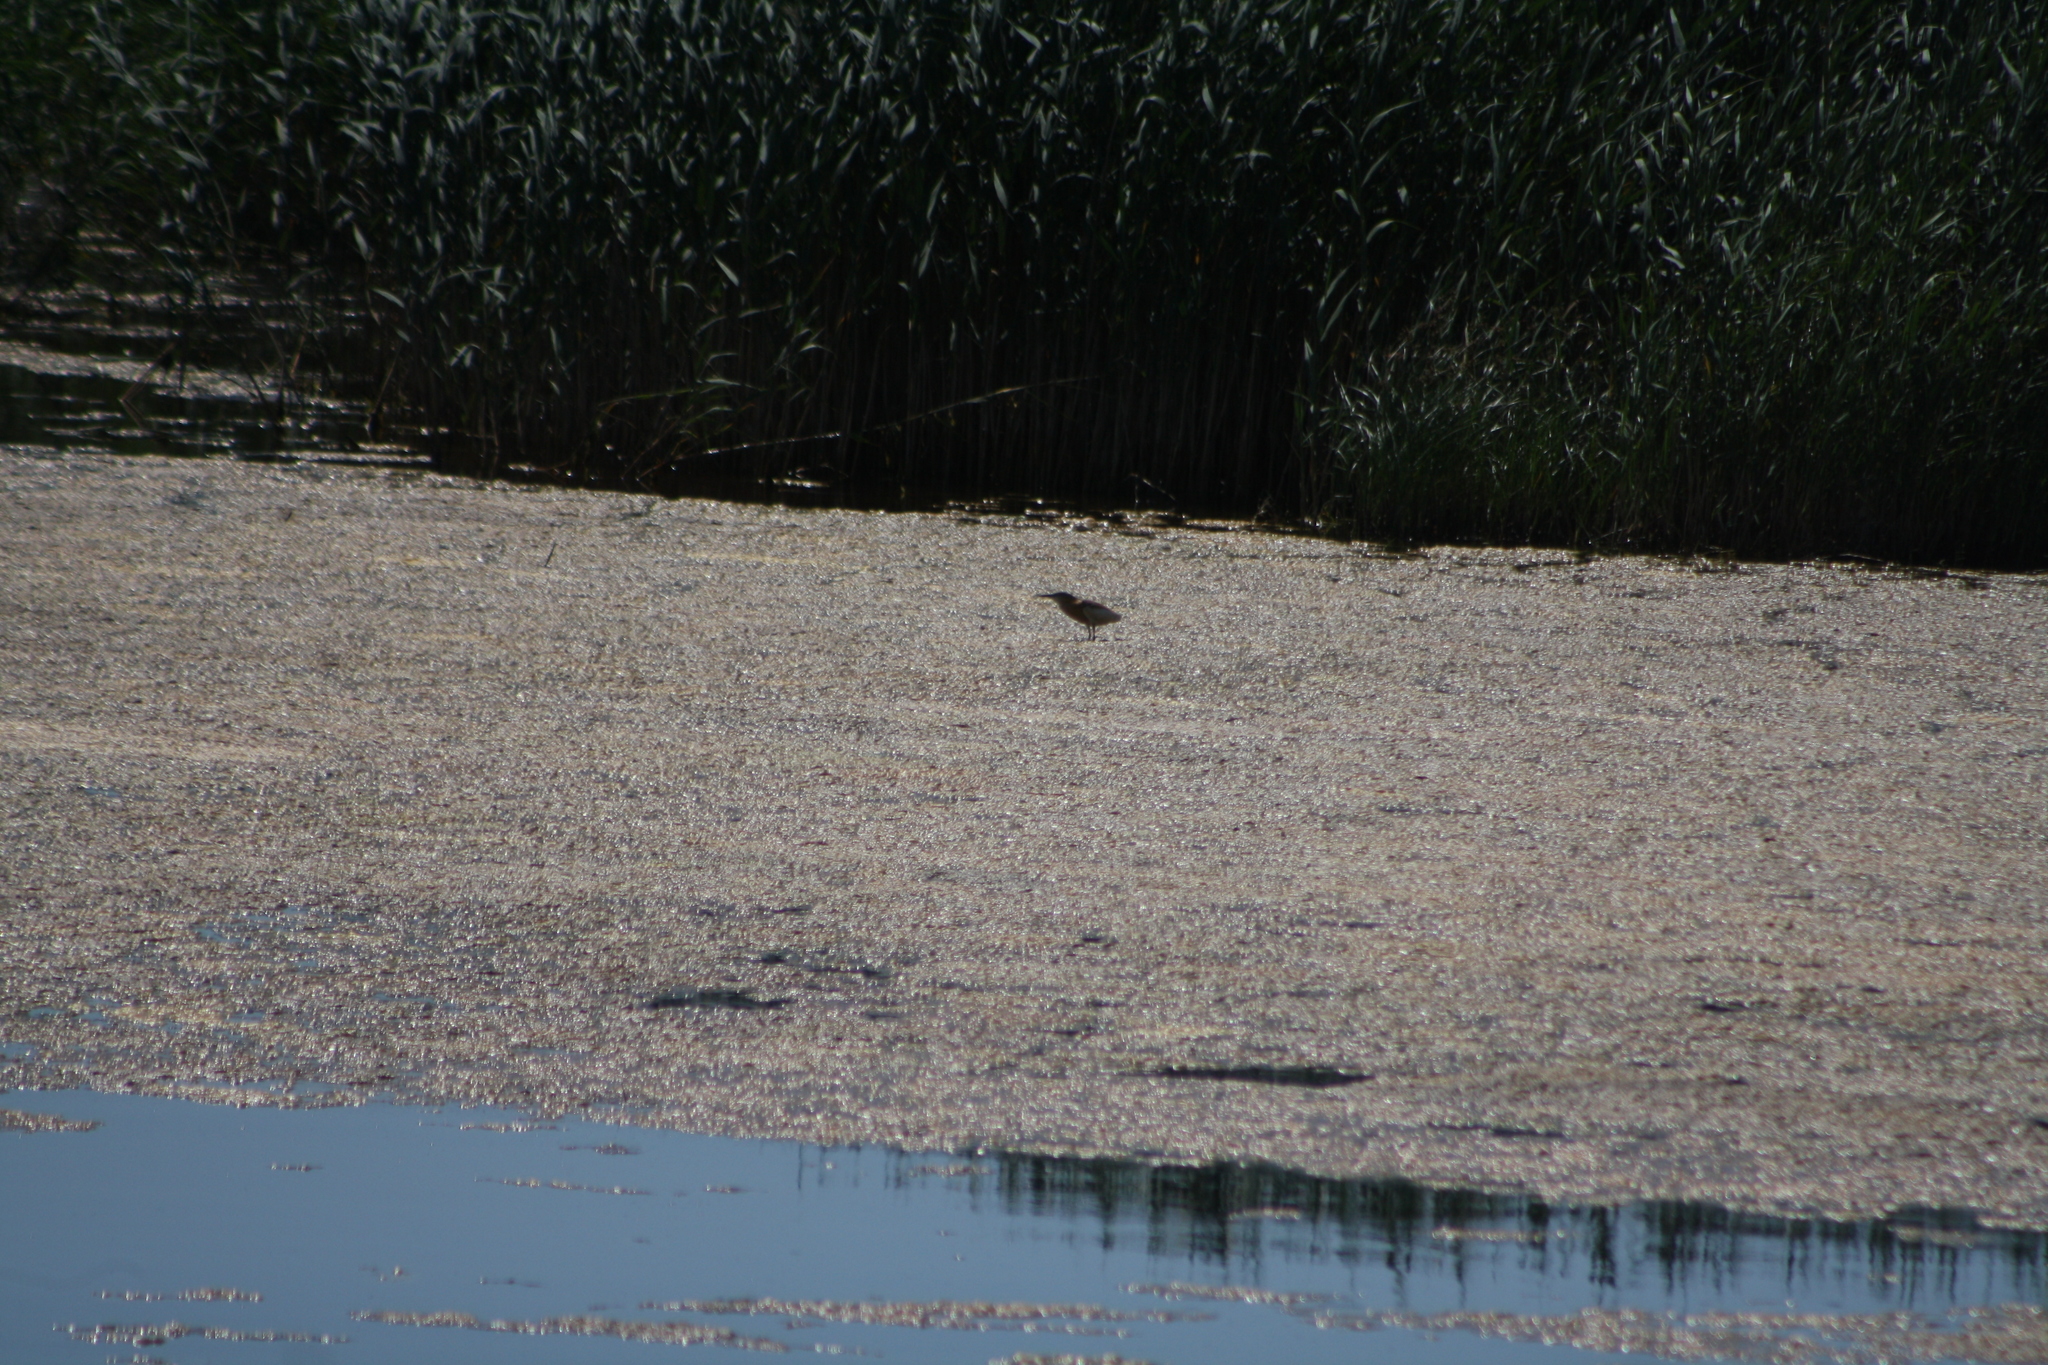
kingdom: Animalia
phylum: Chordata
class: Aves
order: Pelecaniformes
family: Ardeidae
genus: Ardeola
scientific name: Ardeola ralloides
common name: Squacco heron
